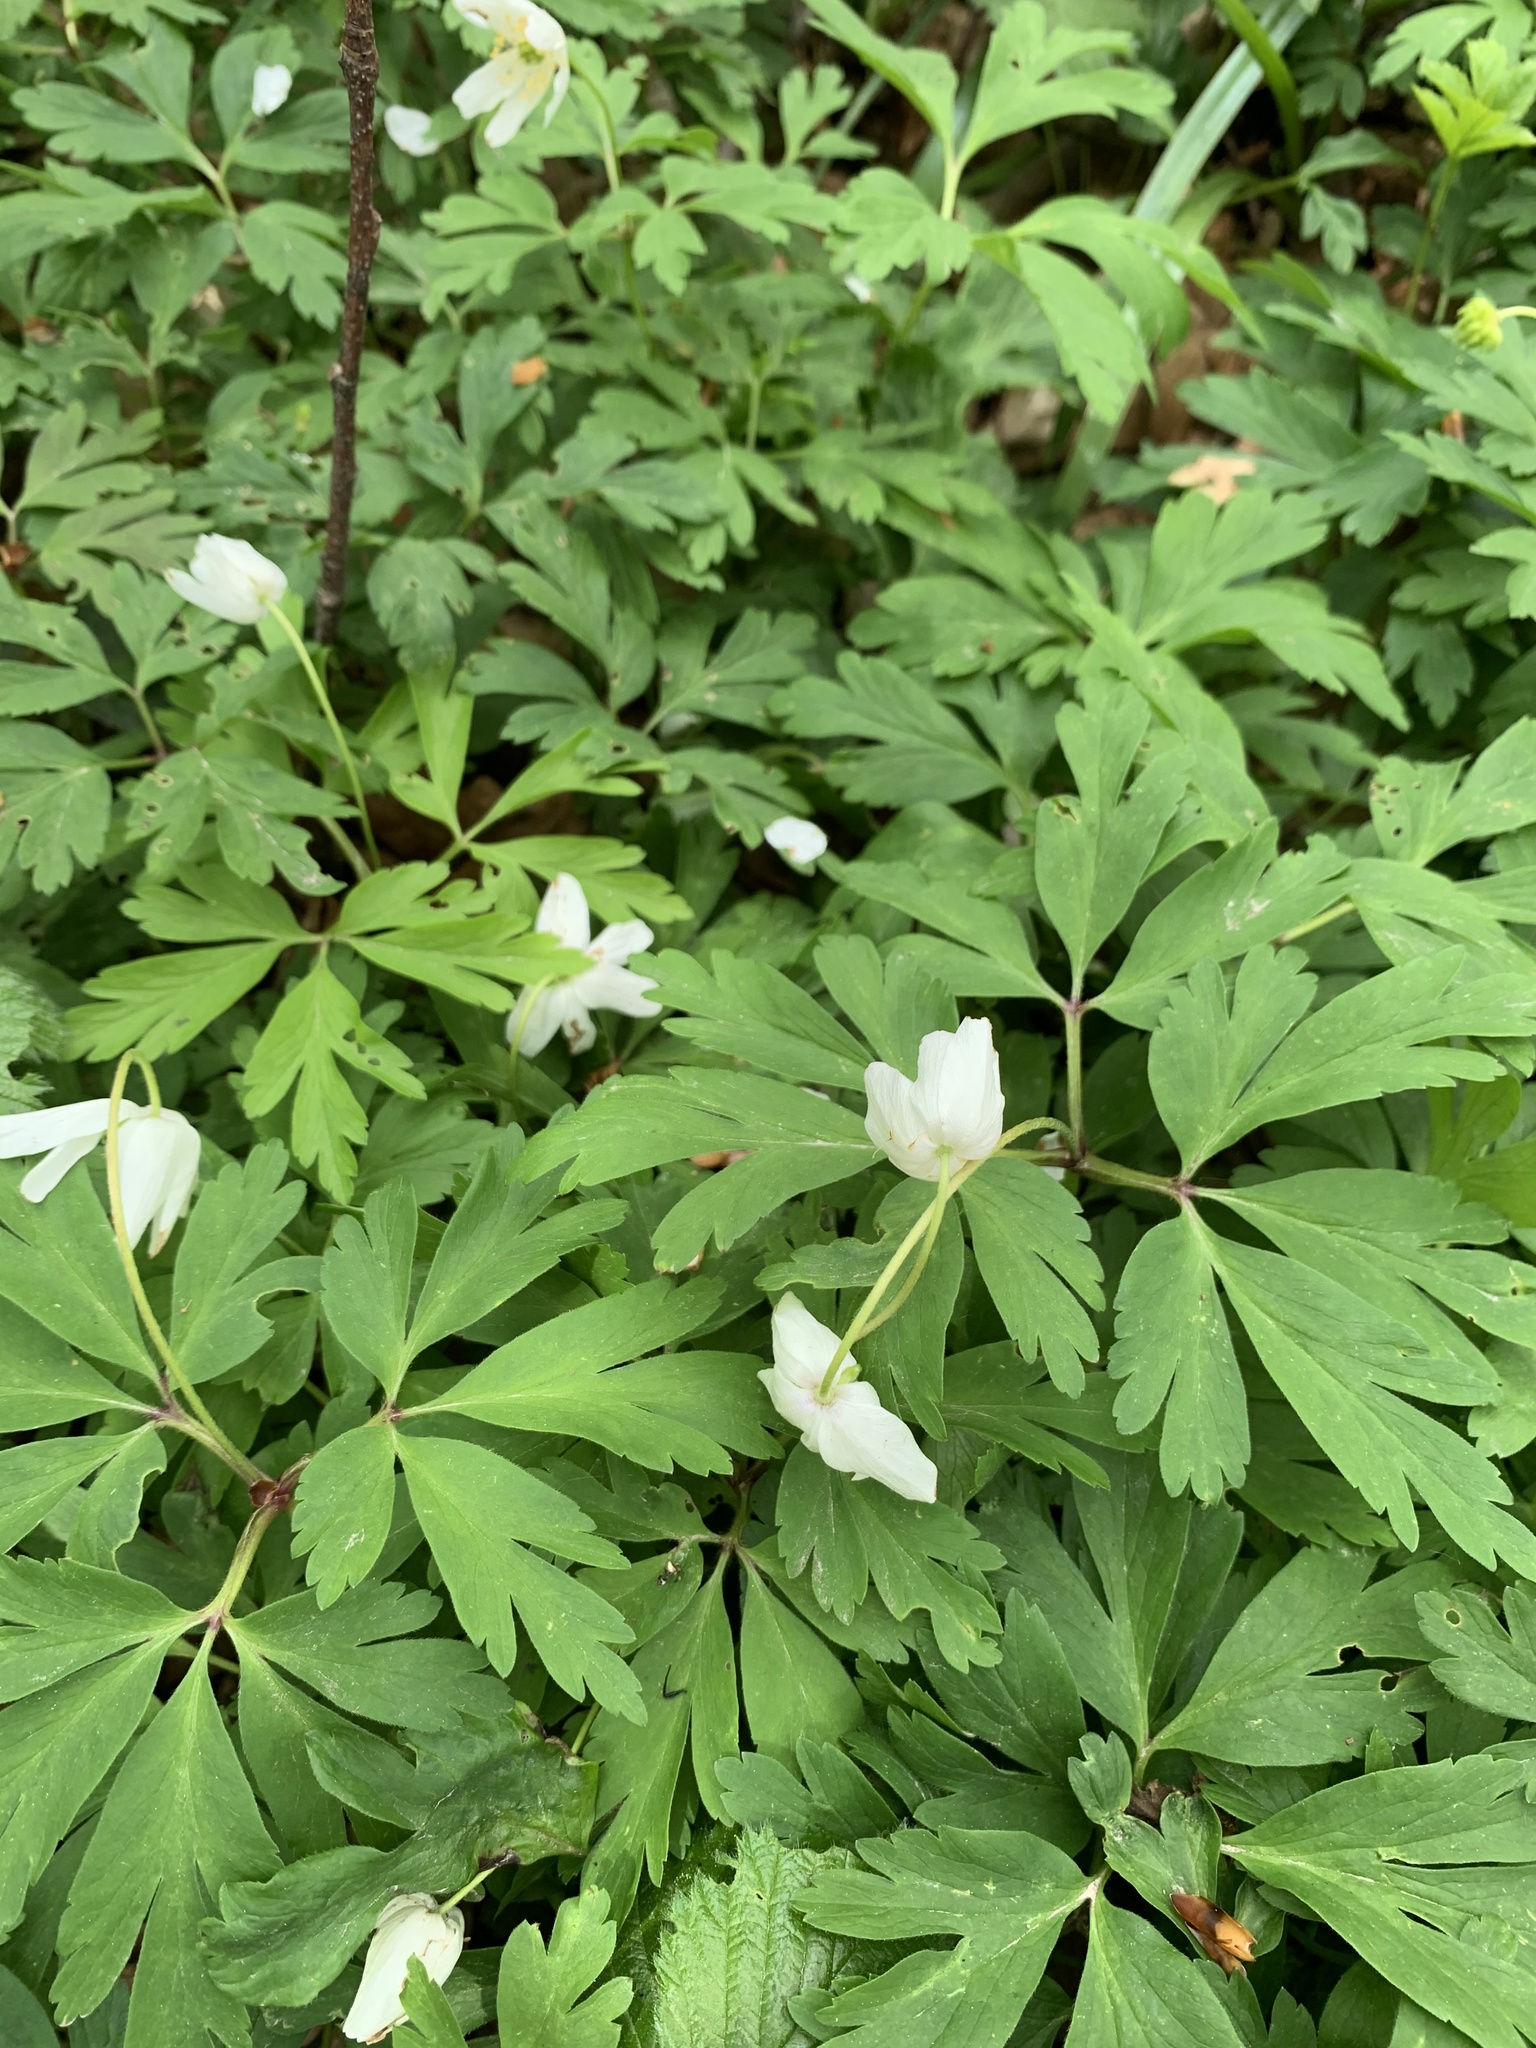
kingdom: Plantae
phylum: Tracheophyta
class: Magnoliopsida
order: Ranunculales
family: Ranunculaceae
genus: Anemone
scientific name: Anemone nemorosa
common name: Wood anemone
